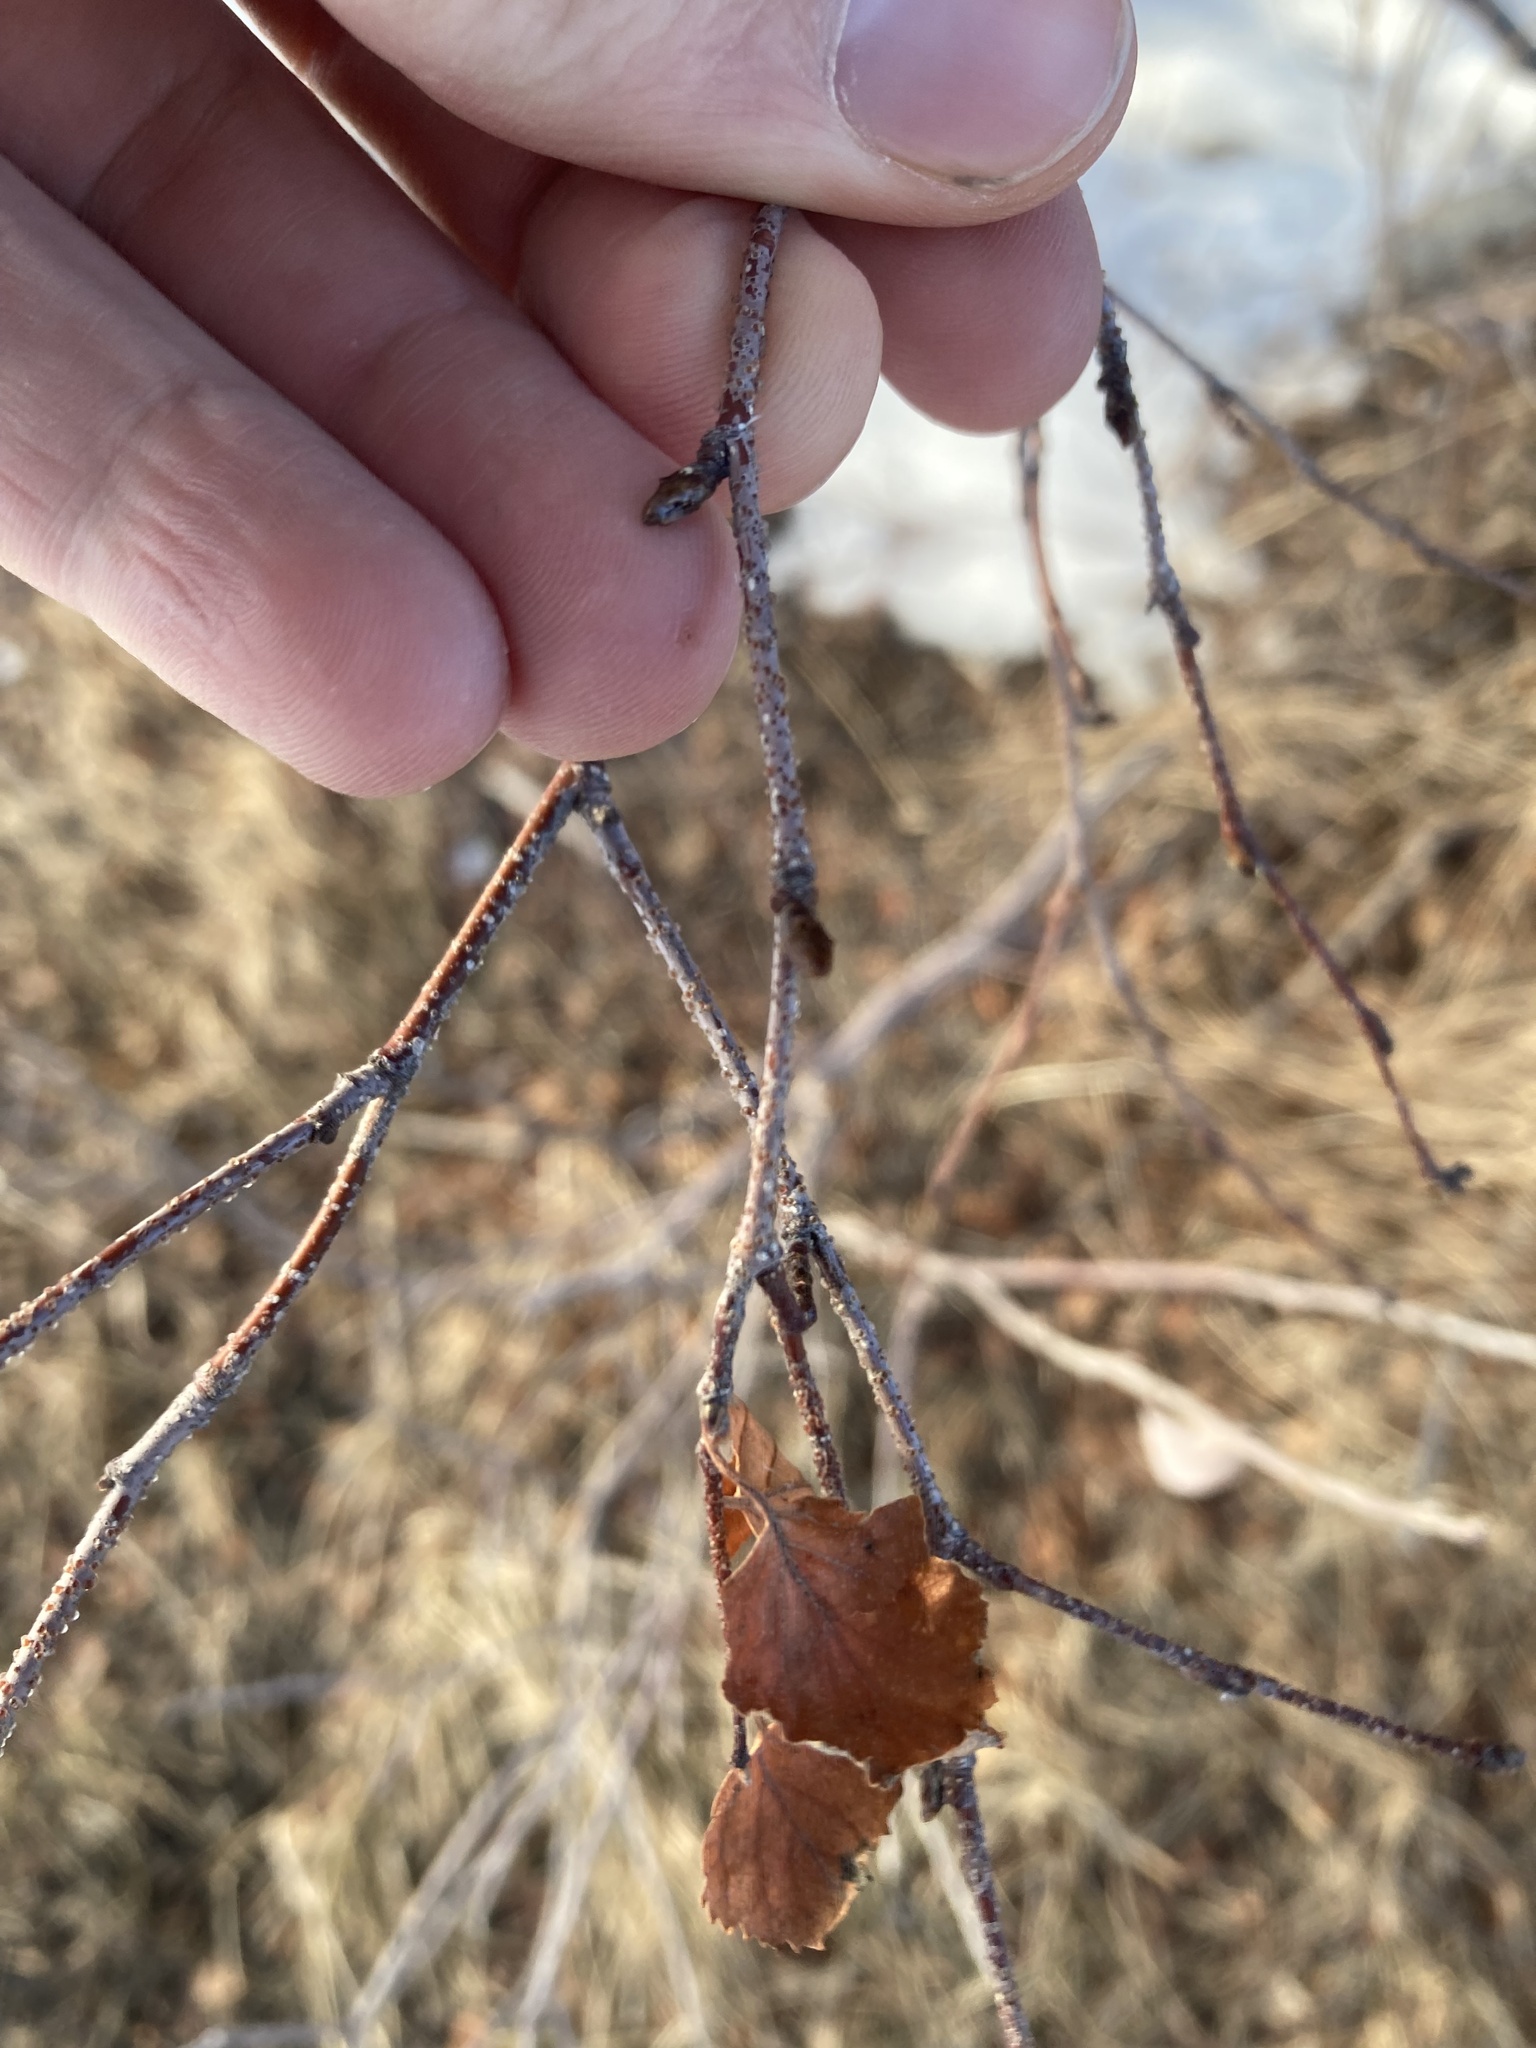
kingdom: Plantae
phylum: Tracheophyta
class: Magnoliopsida
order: Fagales
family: Betulaceae
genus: Betula
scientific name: Betula occidentalis
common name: River birch
